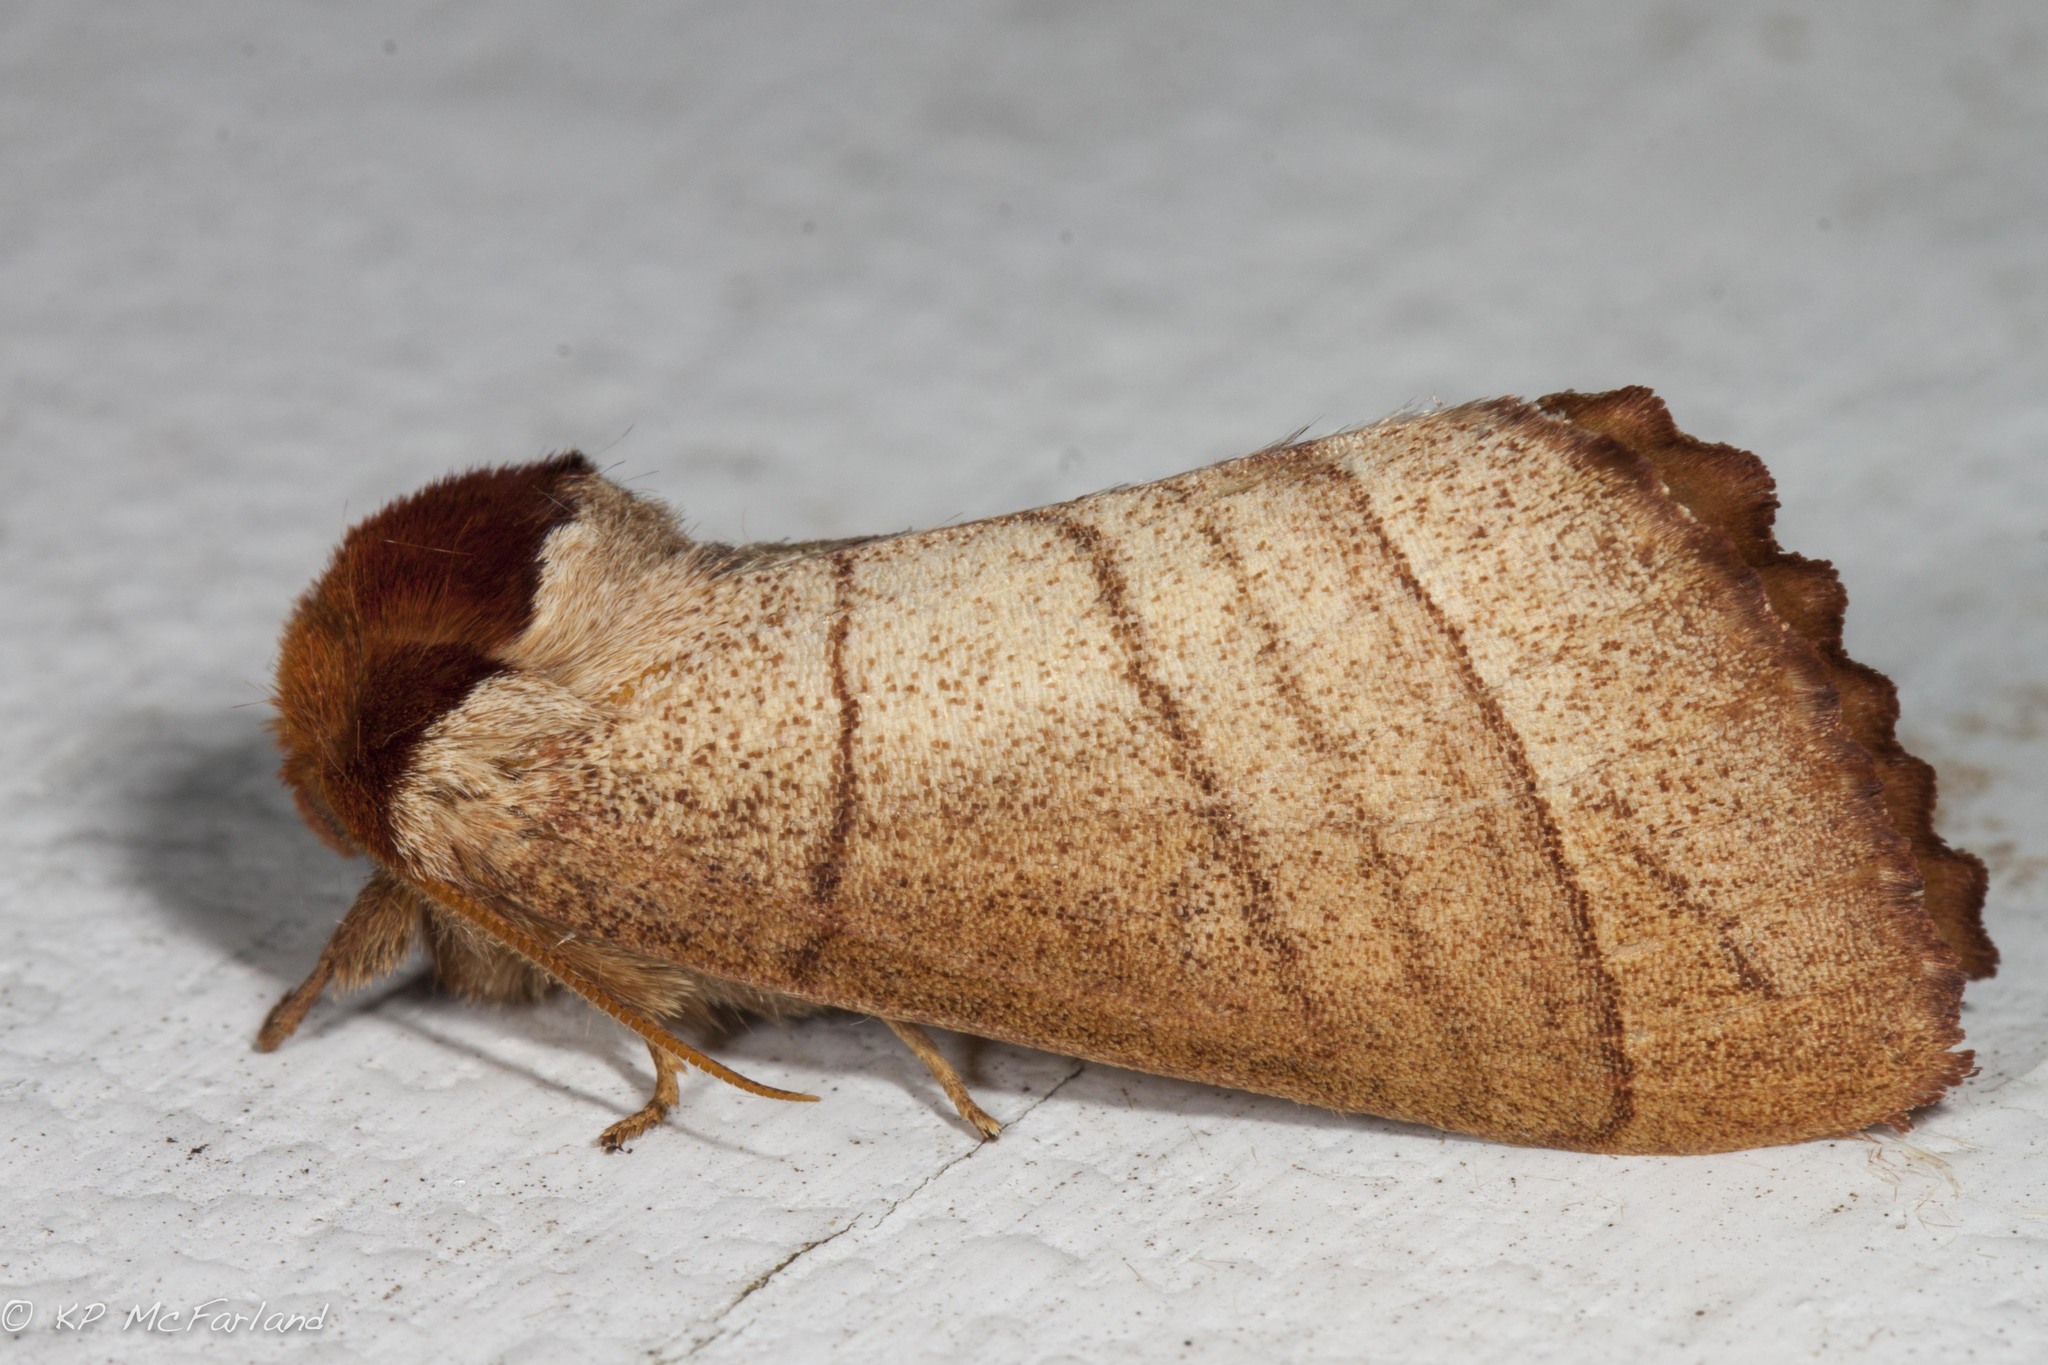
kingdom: Animalia
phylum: Arthropoda
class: Insecta
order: Lepidoptera
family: Notodontidae
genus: Datana
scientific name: Datana ministra
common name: Yellow-necked caterpillar moth
